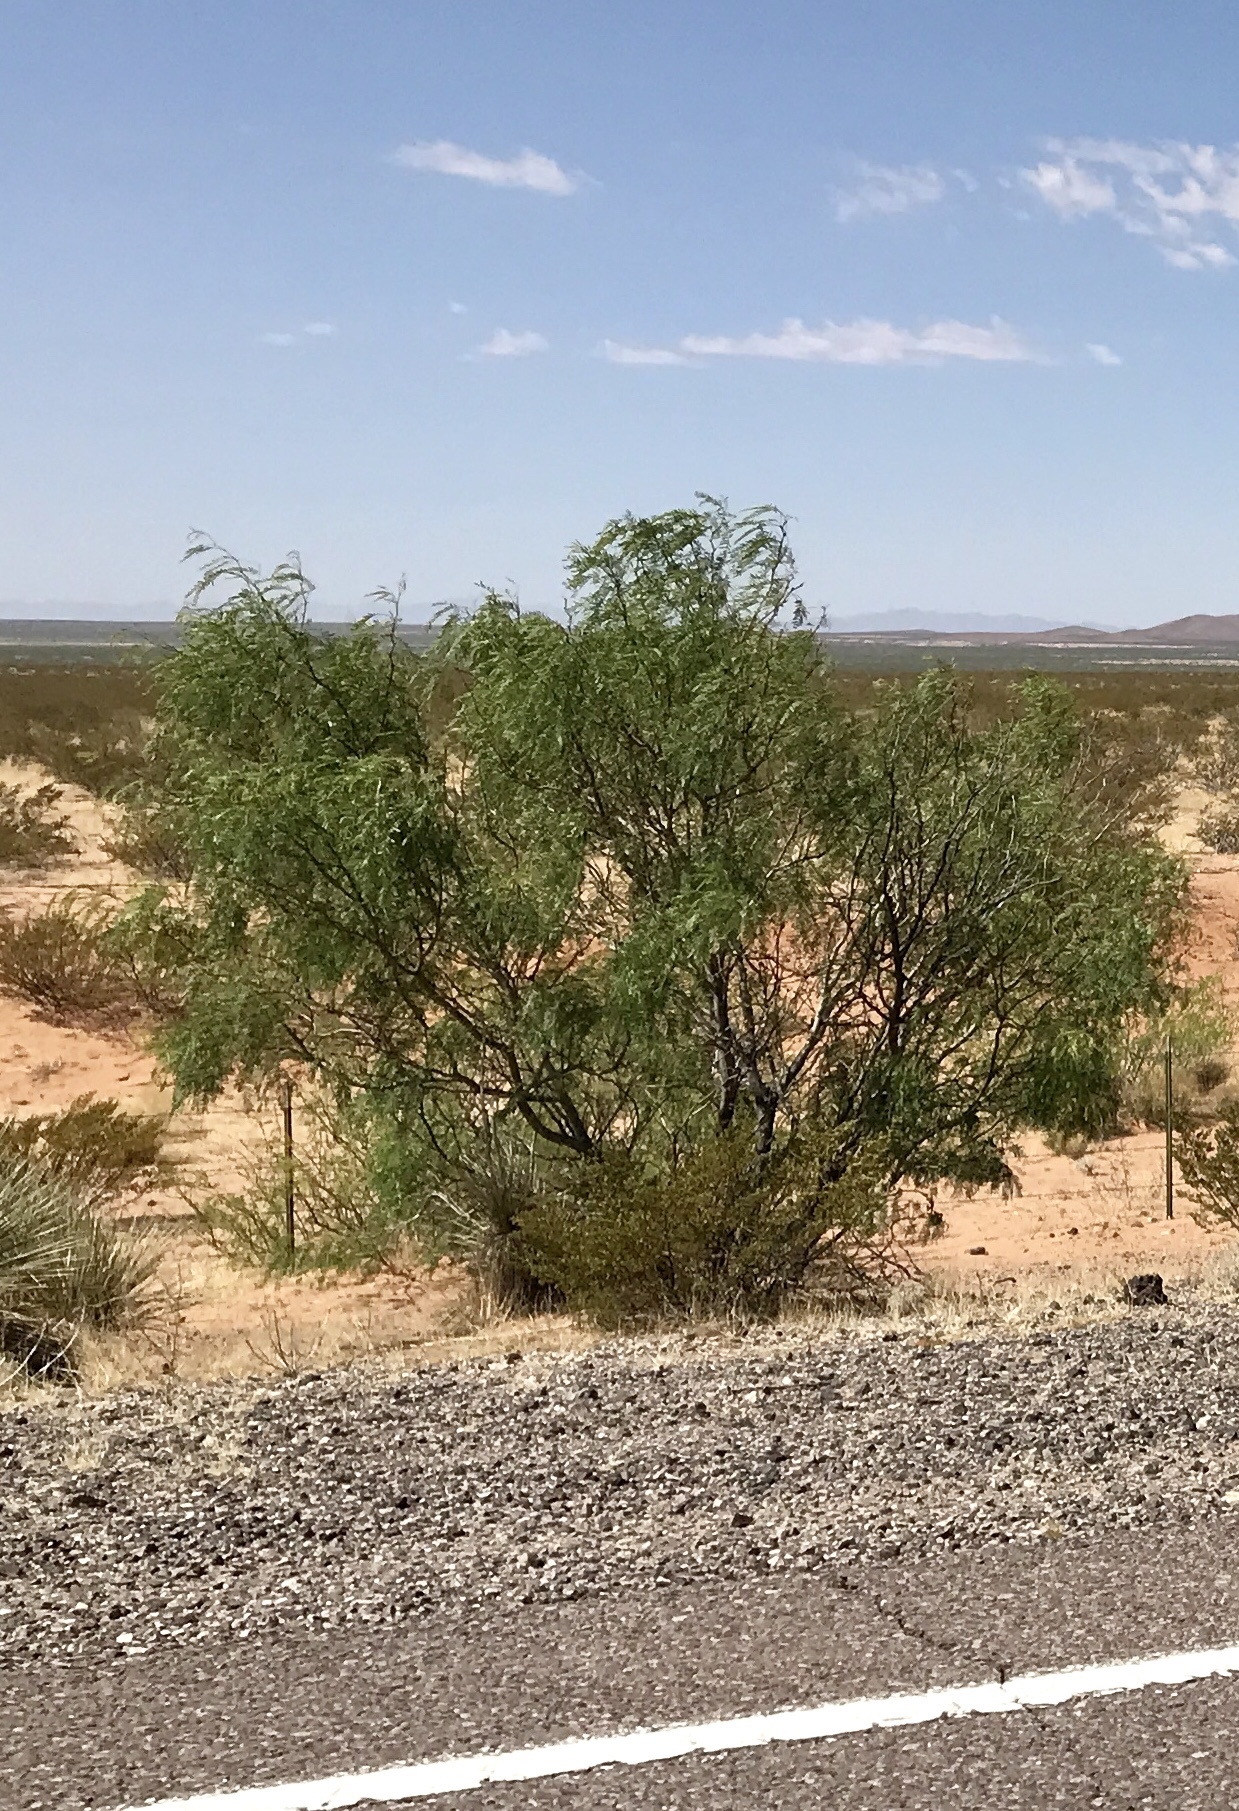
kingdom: Plantae
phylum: Tracheophyta
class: Magnoliopsida
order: Fabales
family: Fabaceae
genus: Prosopis
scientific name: Prosopis glandulosa
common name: Honey mesquite
